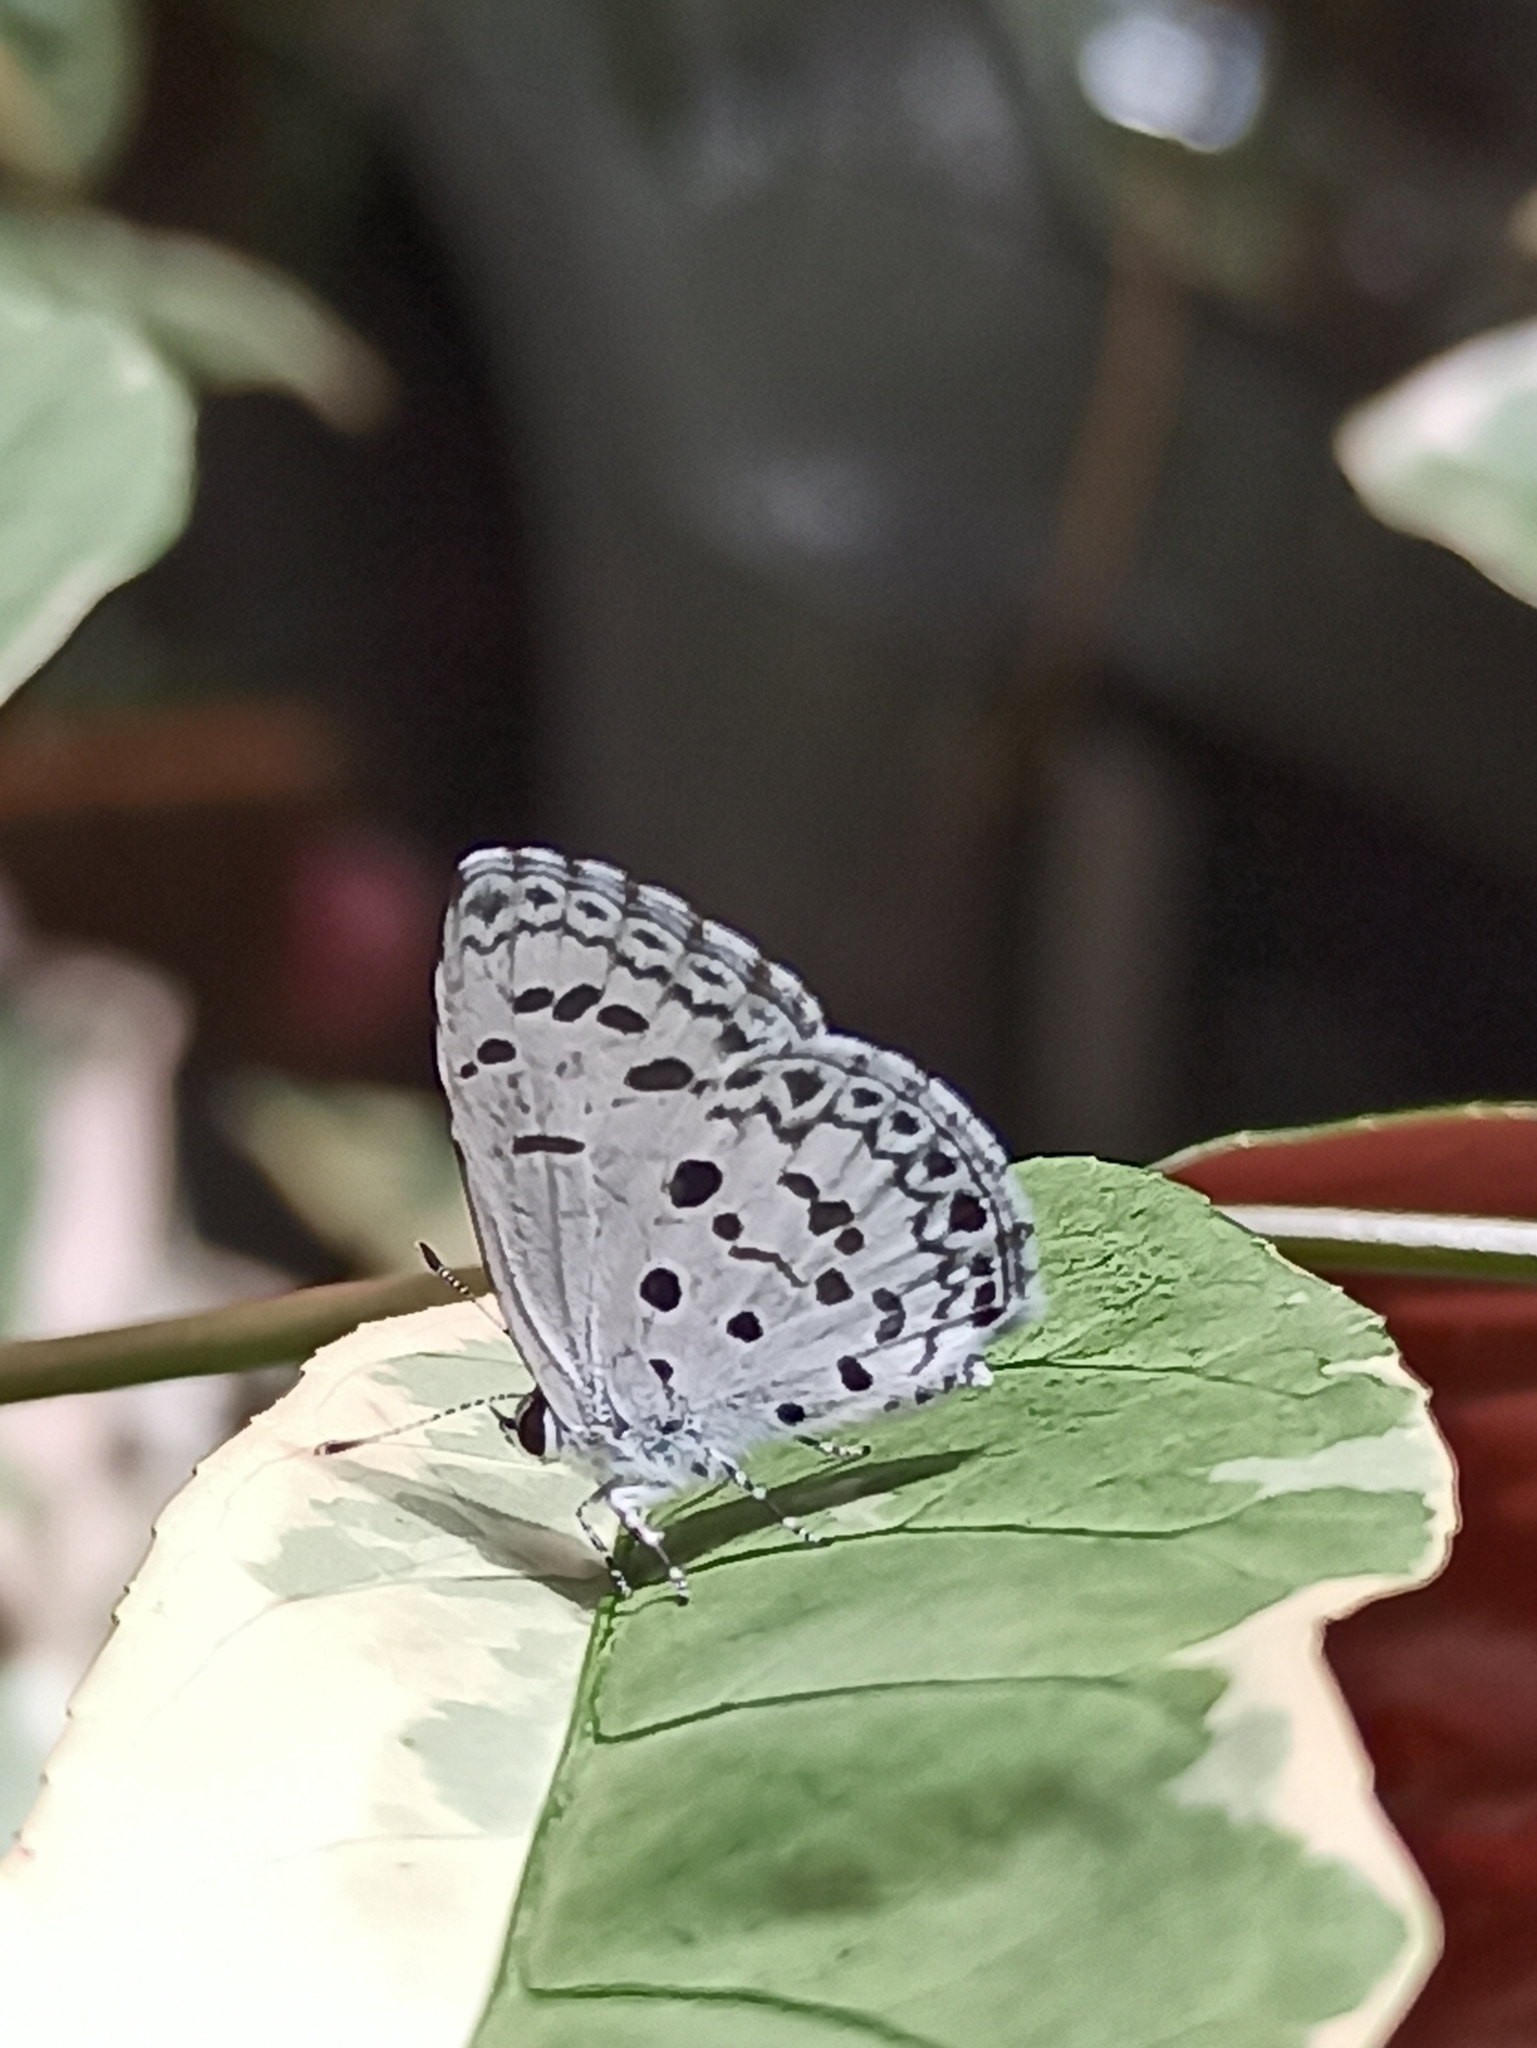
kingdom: Animalia
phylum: Arthropoda
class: Insecta
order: Lepidoptera
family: Lycaenidae
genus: Acytolepis
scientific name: Acytolepis puspa
